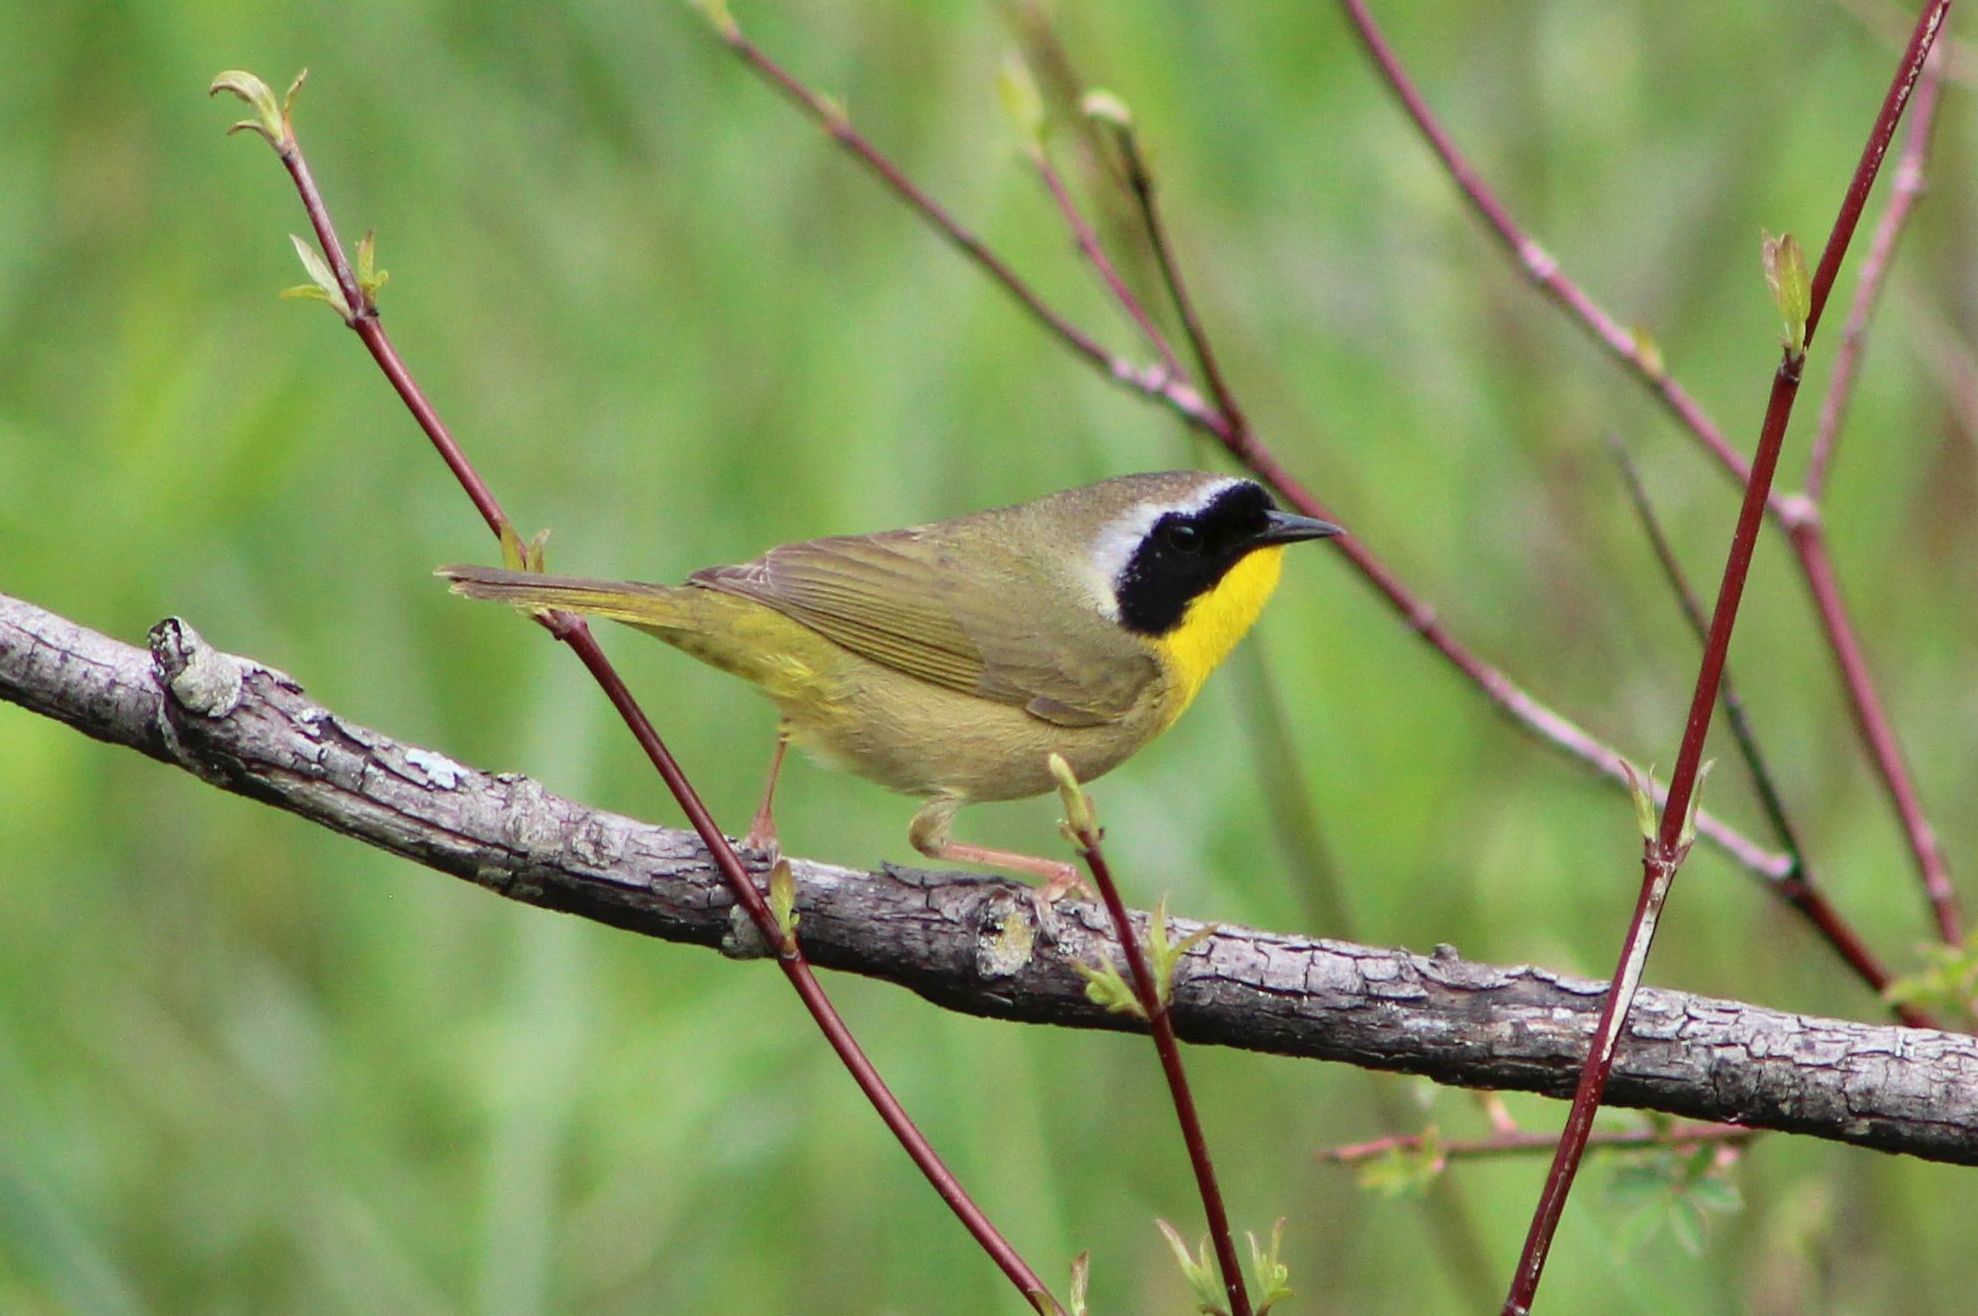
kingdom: Animalia
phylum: Chordata
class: Aves
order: Passeriformes
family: Parulidae
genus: Geothlypis
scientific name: Geothlypis trichas
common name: Common yellowthroat
